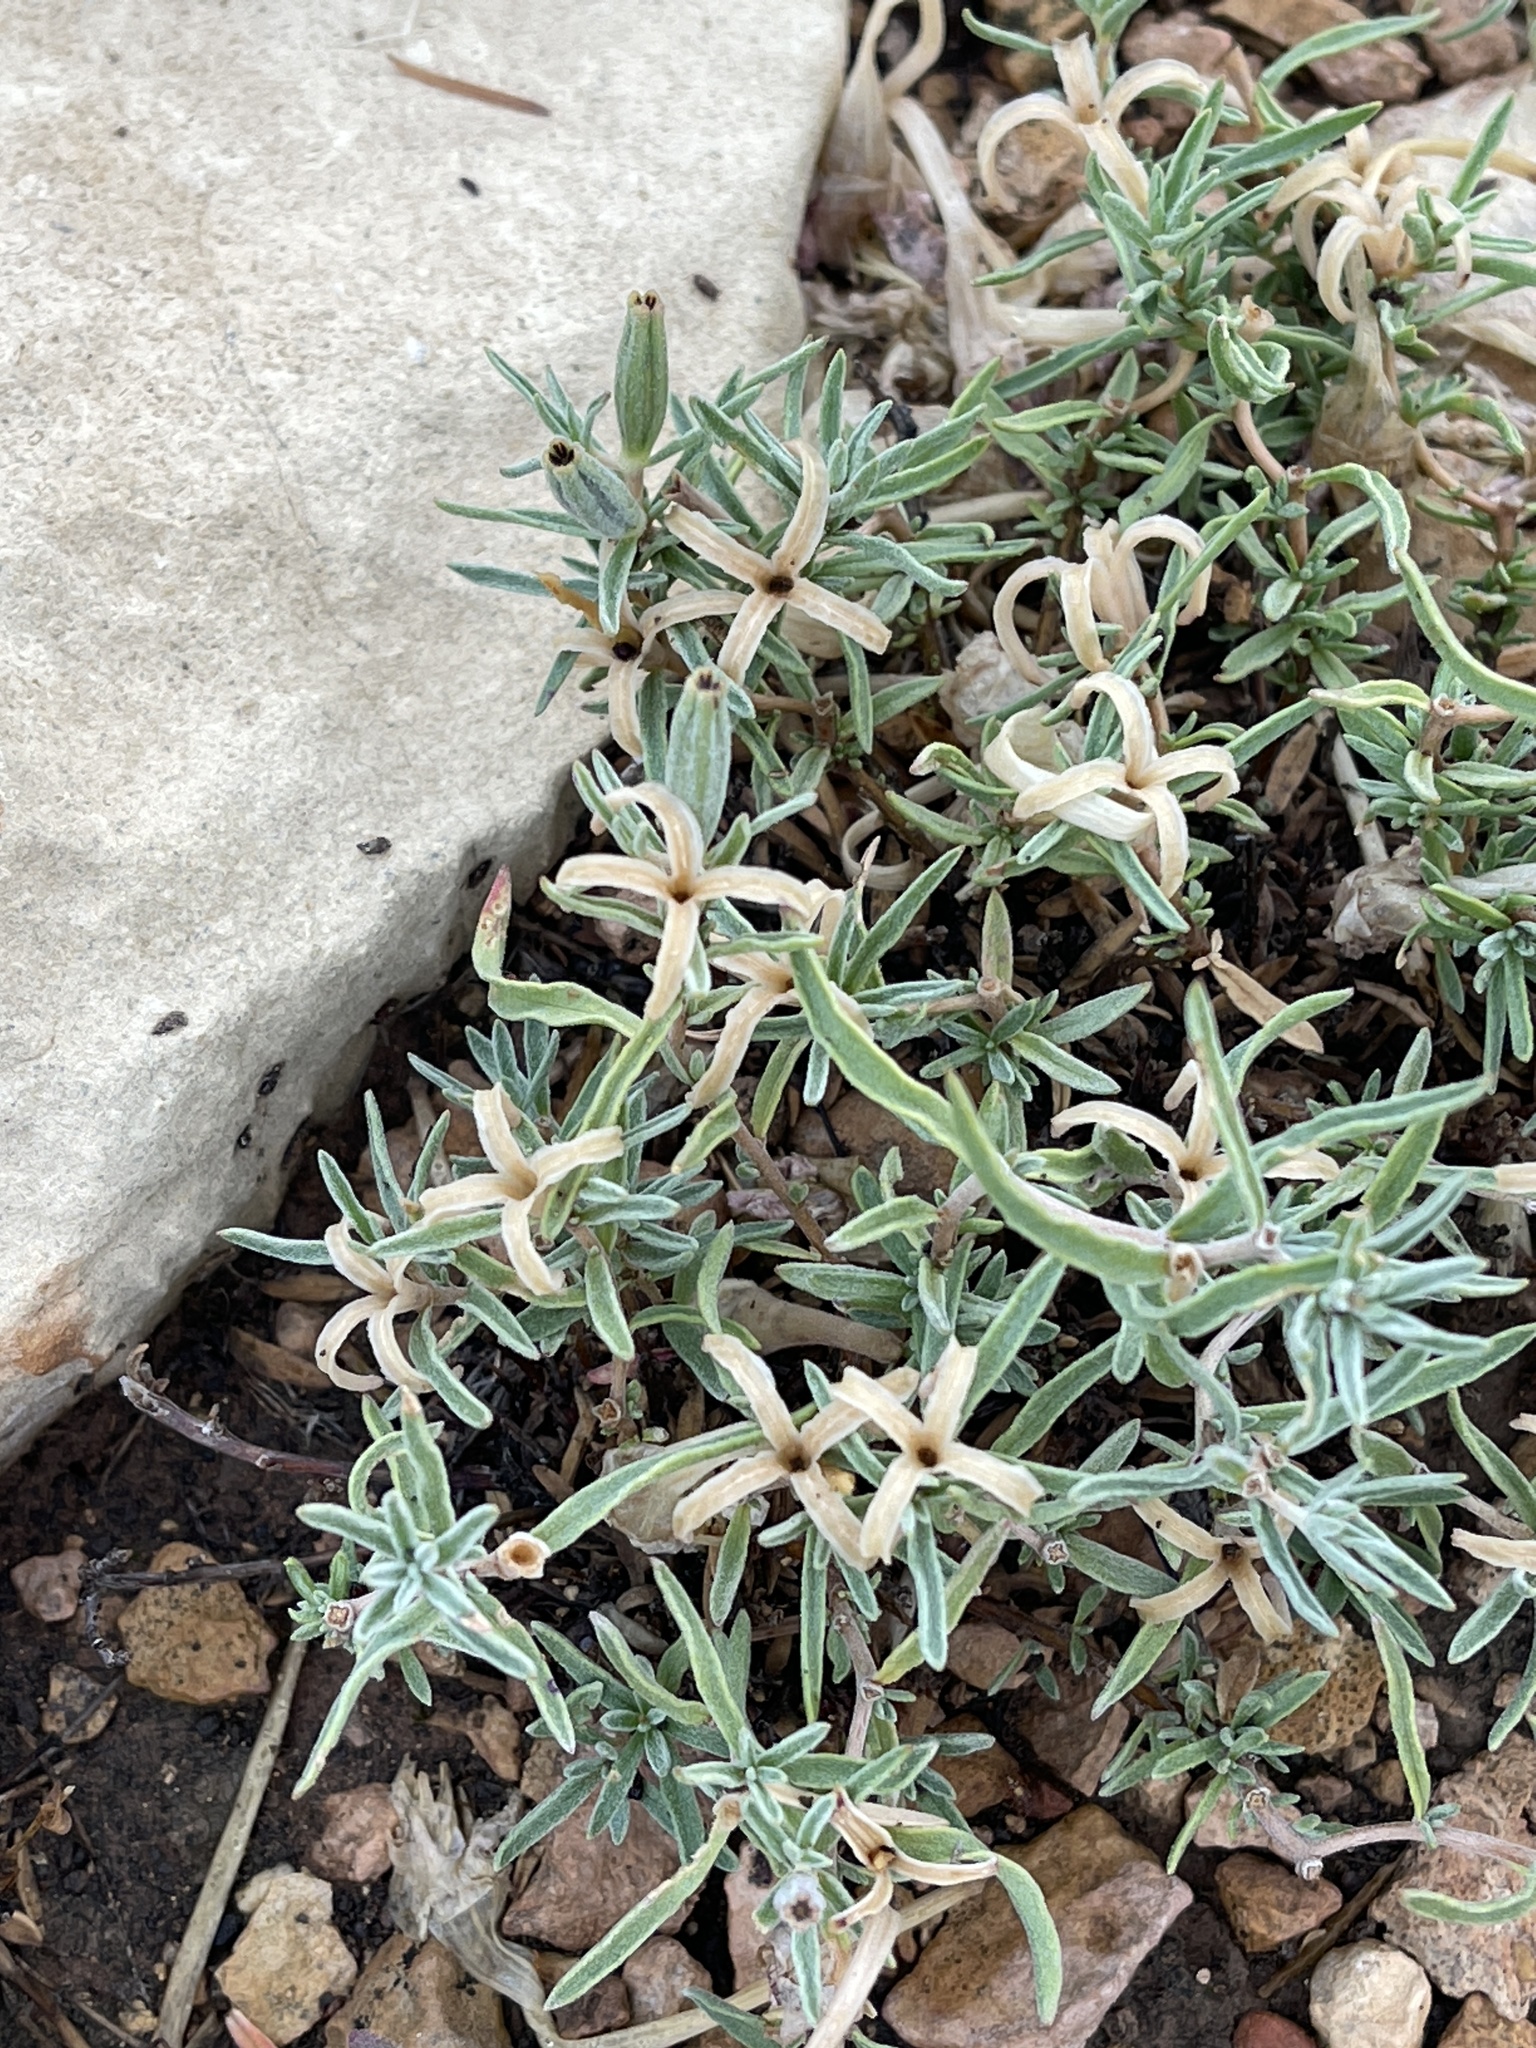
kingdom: Plantae
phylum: Tracheophyta
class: Magnoliopsida
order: Asterales
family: Asteraceae
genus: Zinnia
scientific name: Zinnia grandiflora
